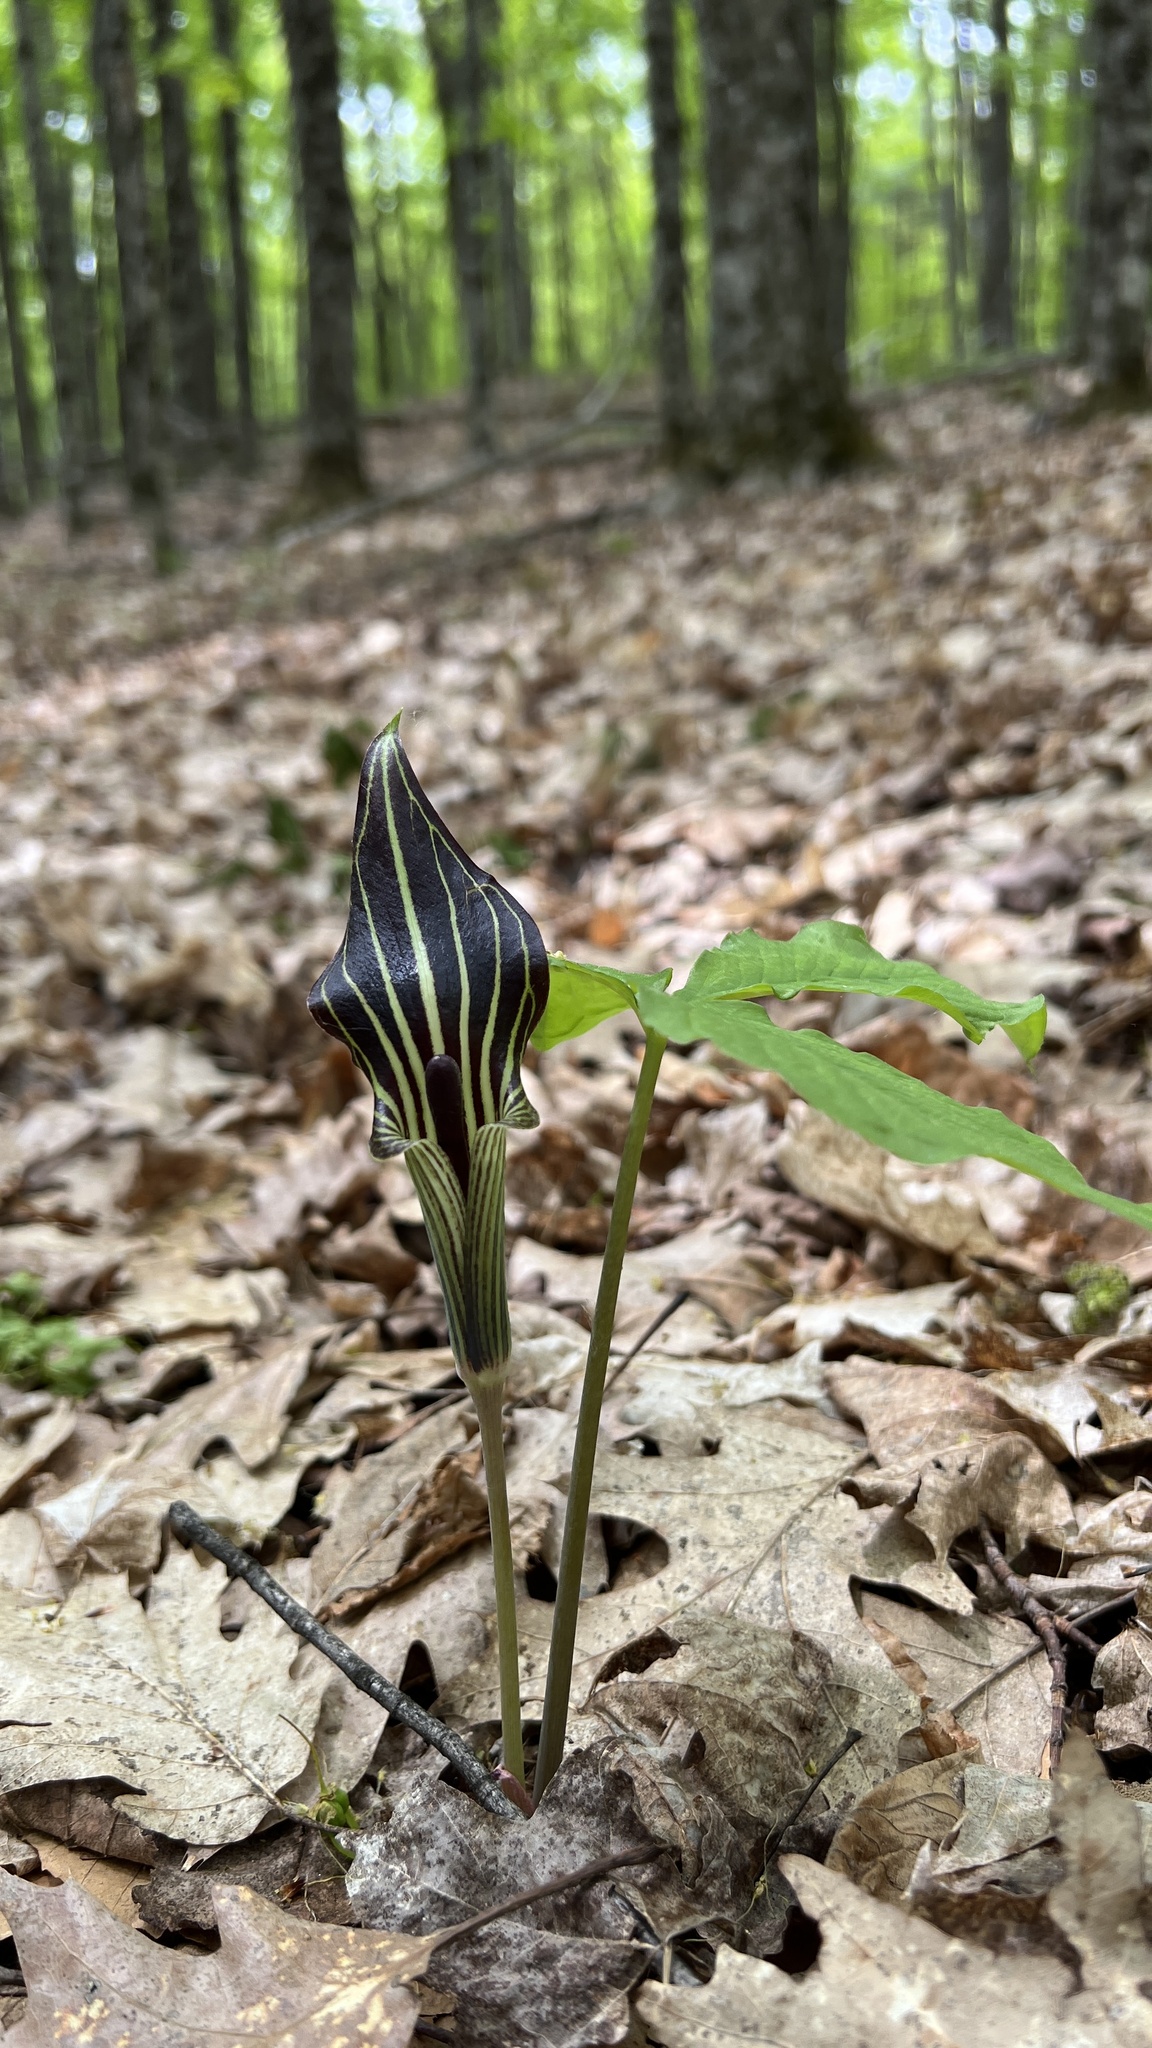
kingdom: Plantae
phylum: Tracheophyta
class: Liliopsida
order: Alismatales
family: Araceae
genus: Arisaema
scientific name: Arisaema triphyllum
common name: Jack-in-the-pulpit
